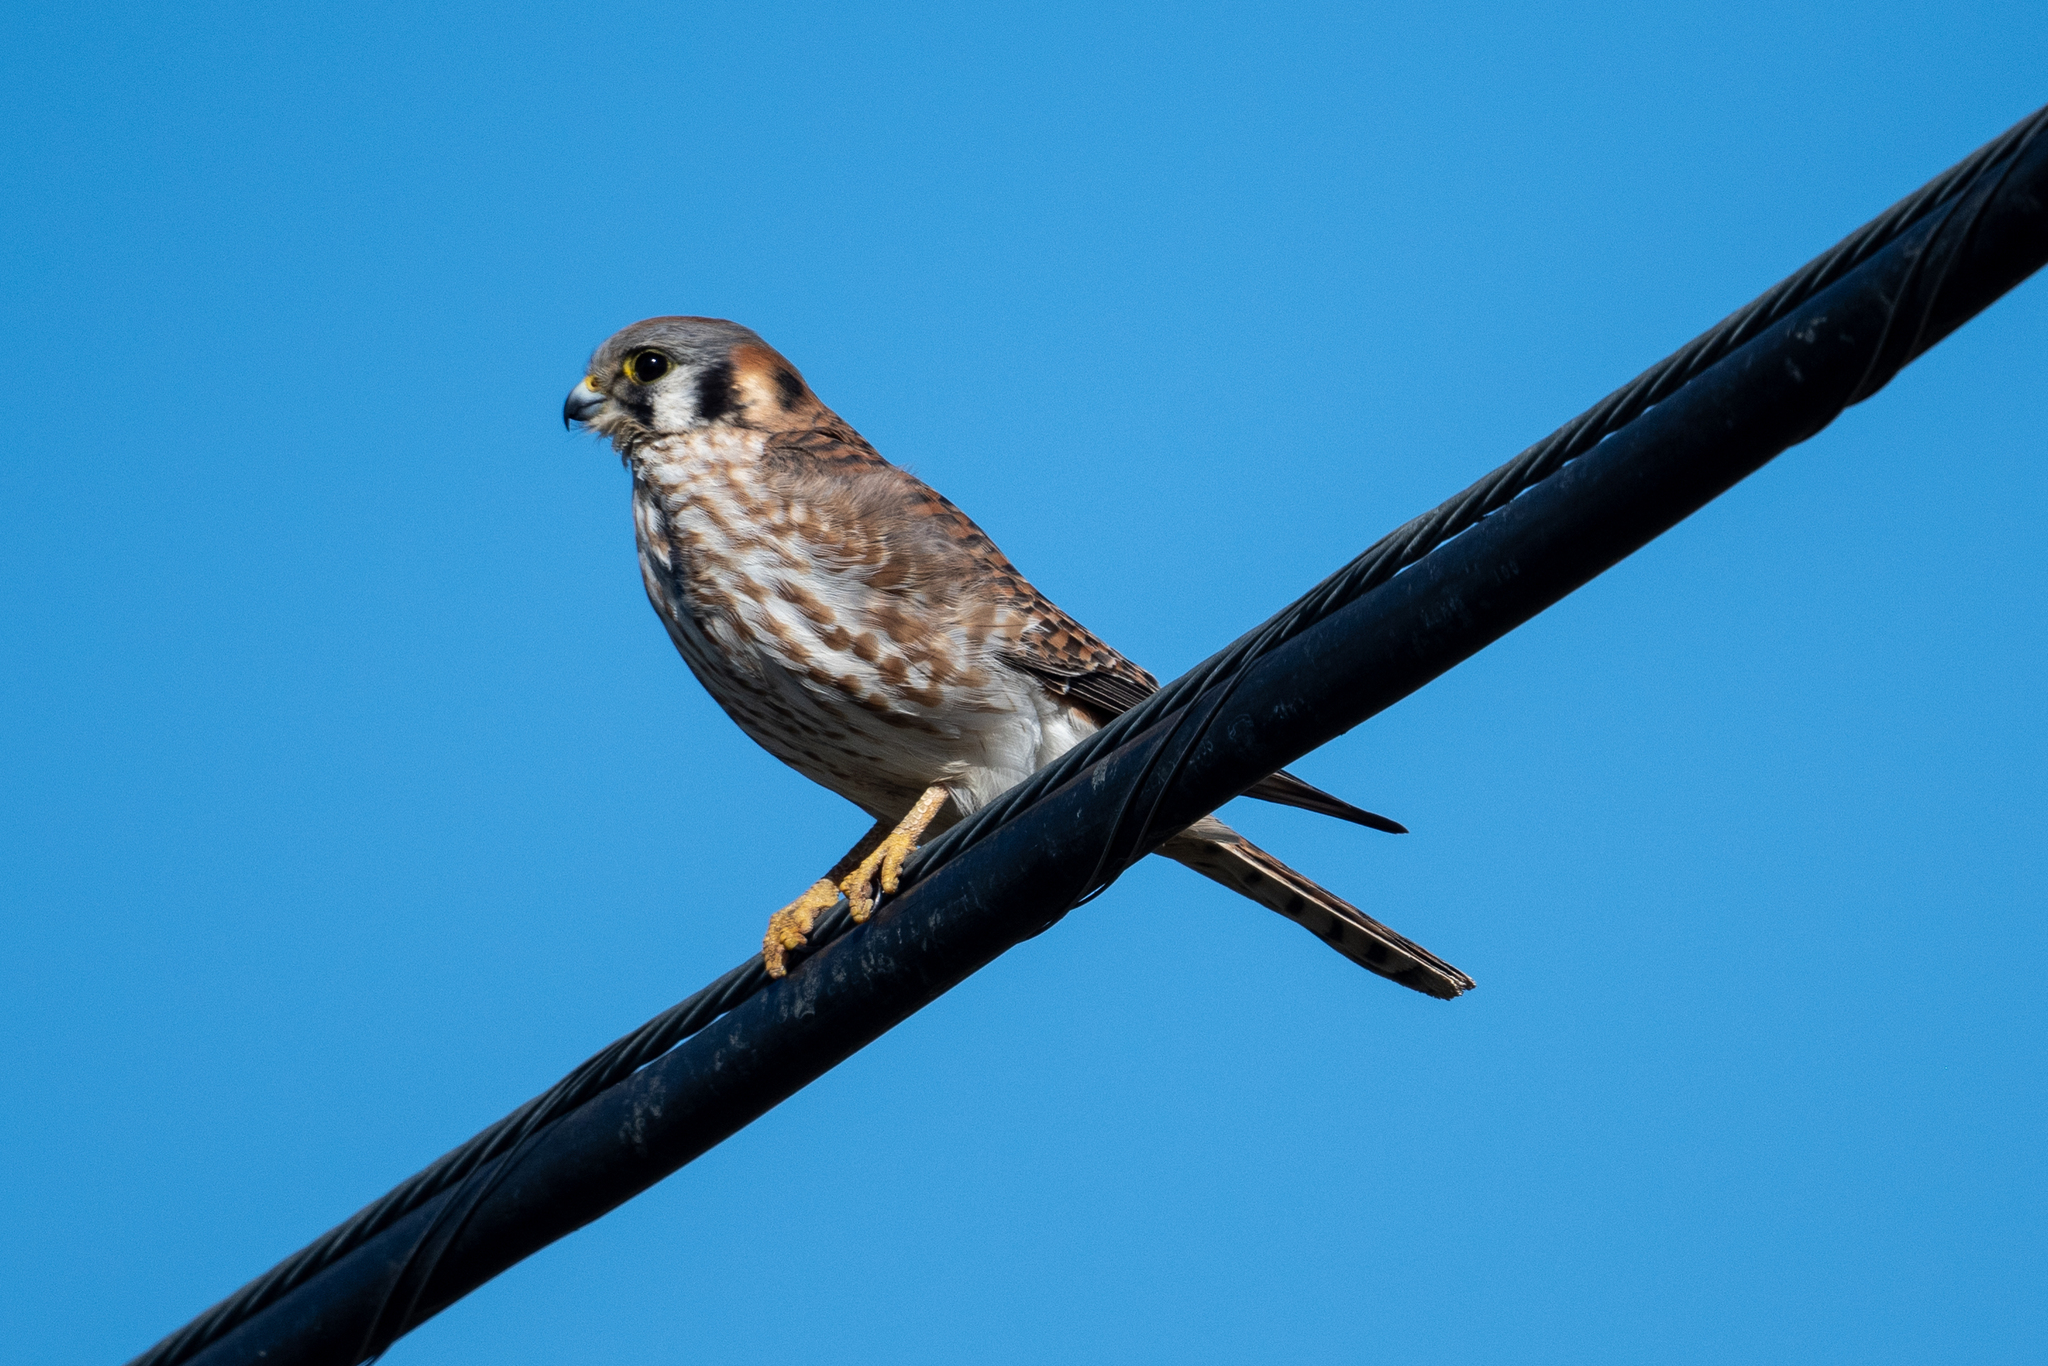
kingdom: Animalia
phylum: Chordata
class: Aves
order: Falconiformes
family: Falconidae
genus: Falco
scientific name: Falco sparverius
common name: American kestrel
